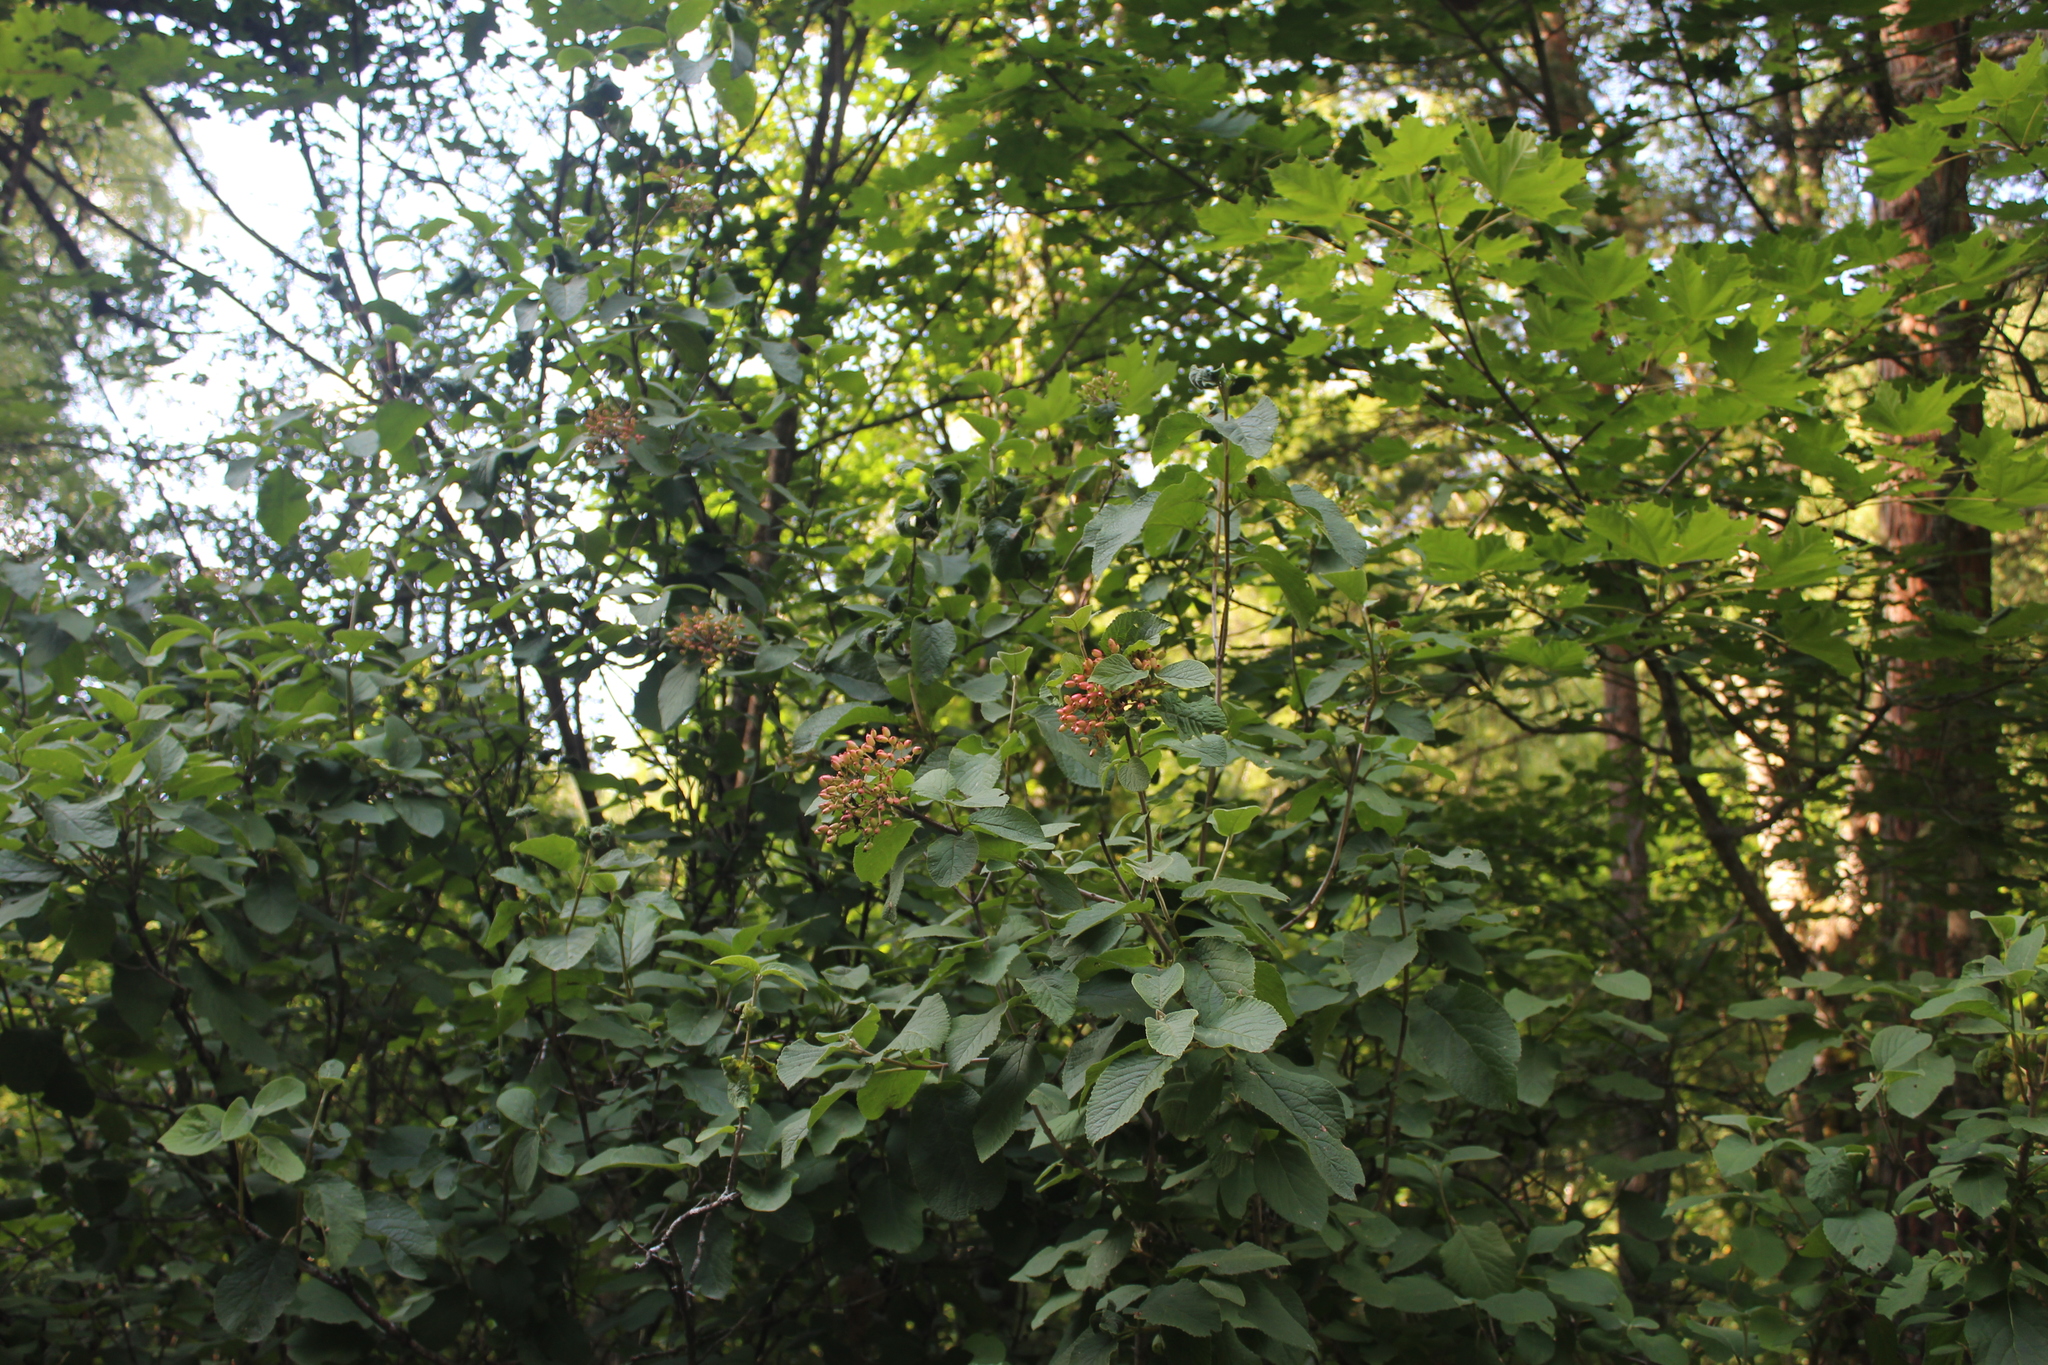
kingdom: Plantae
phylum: Tracheophyta
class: Magnoliopsida
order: Dipsacales
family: Viburnaceae
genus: Viburnum
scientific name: Viburnum lantana
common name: Wayfaring tree
